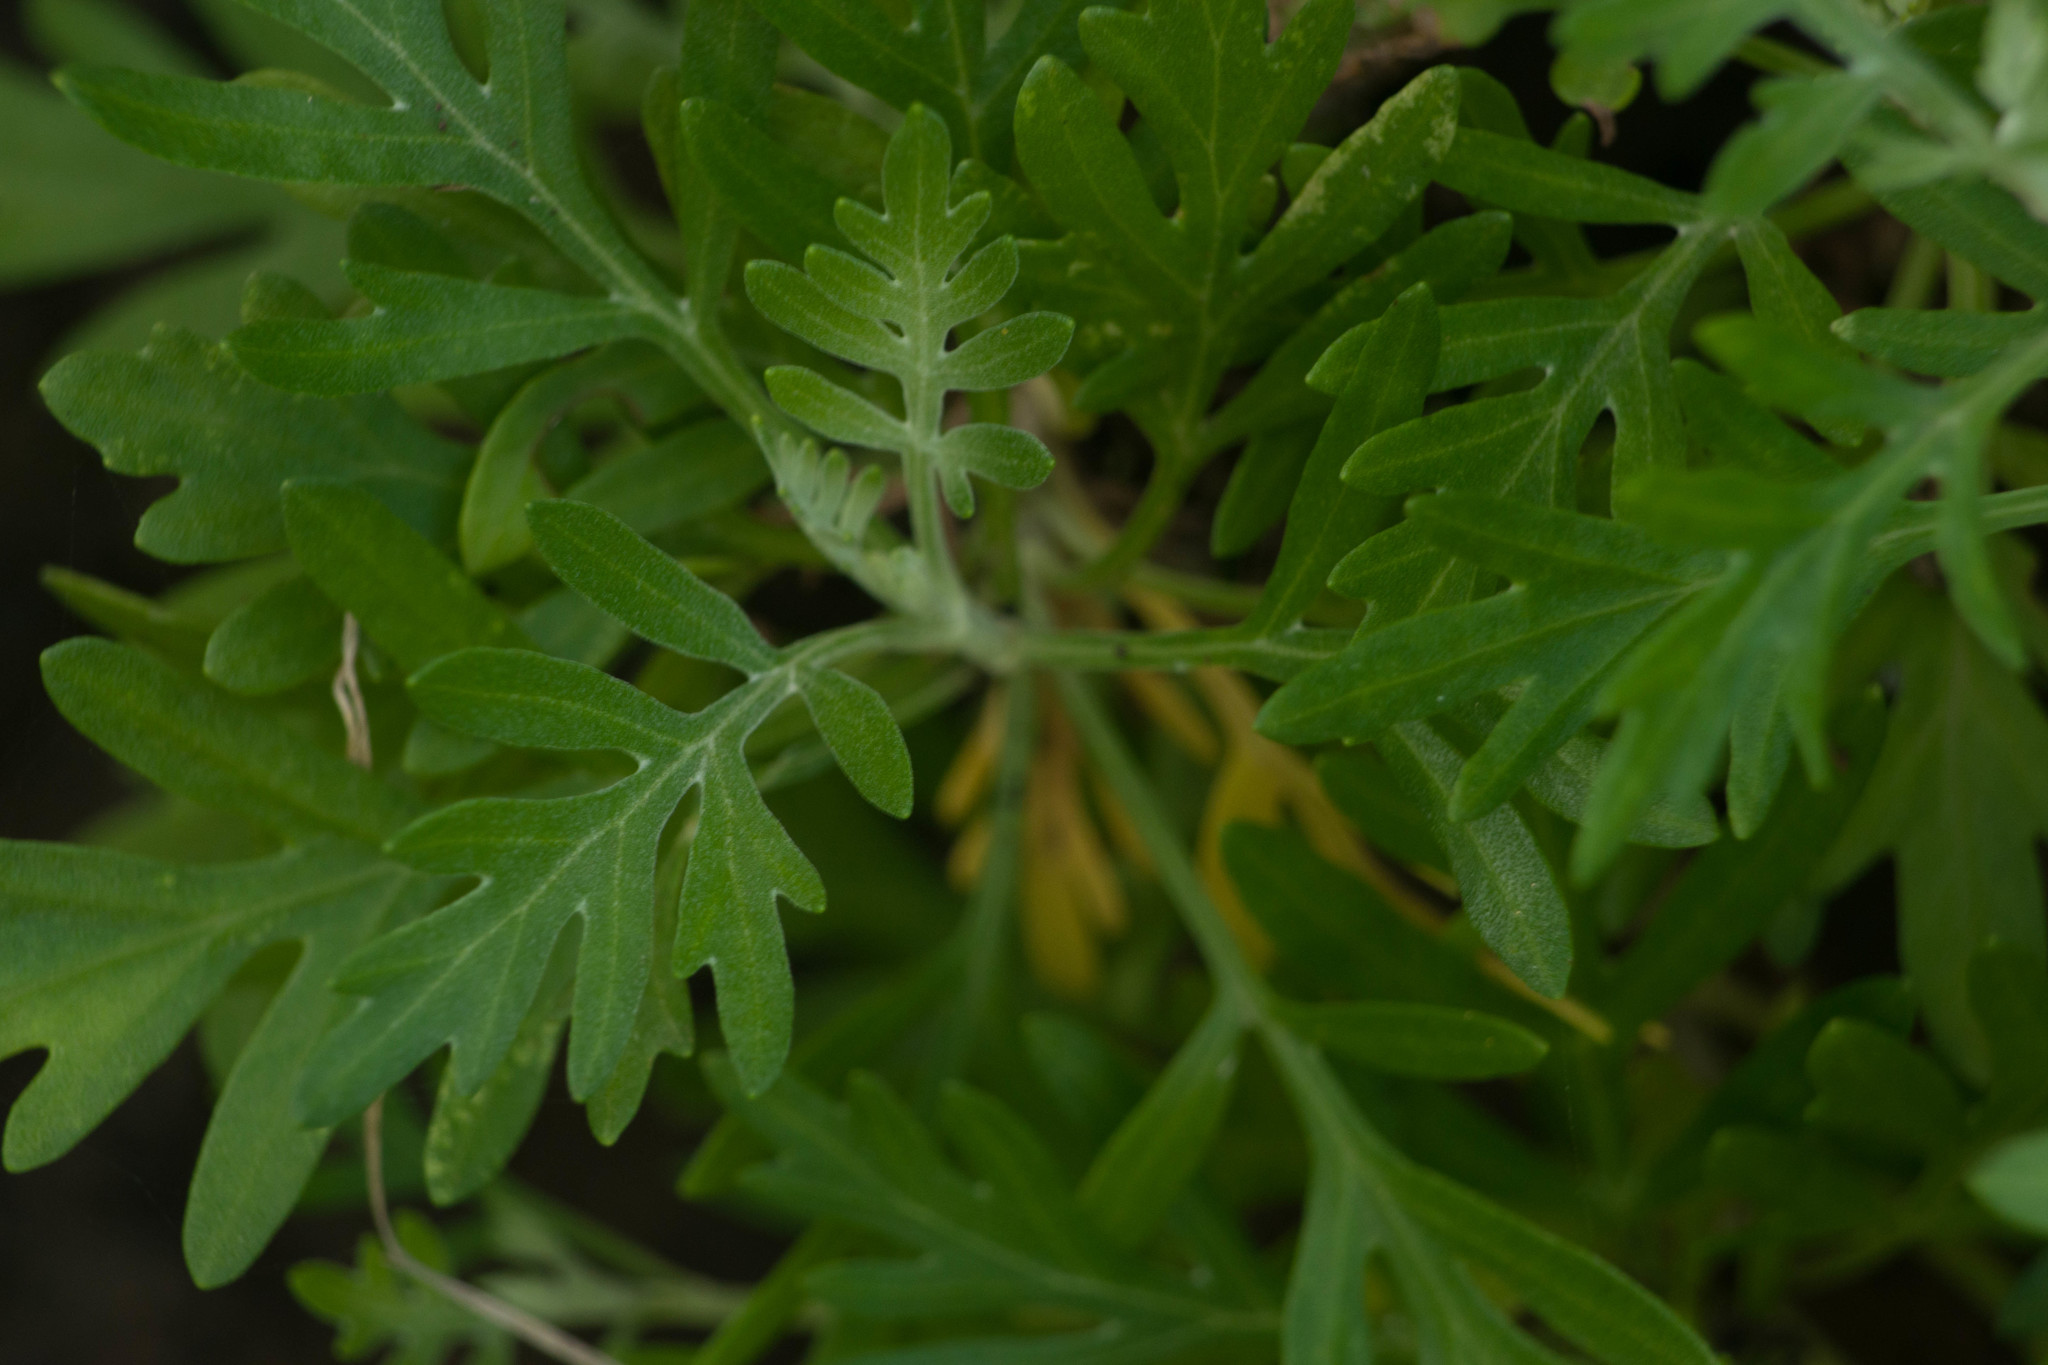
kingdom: Plantae
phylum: Tracheophyta
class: Magnoliopsida
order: Asterales
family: Asteraceae
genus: Artemisia
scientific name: Artemisia australis
